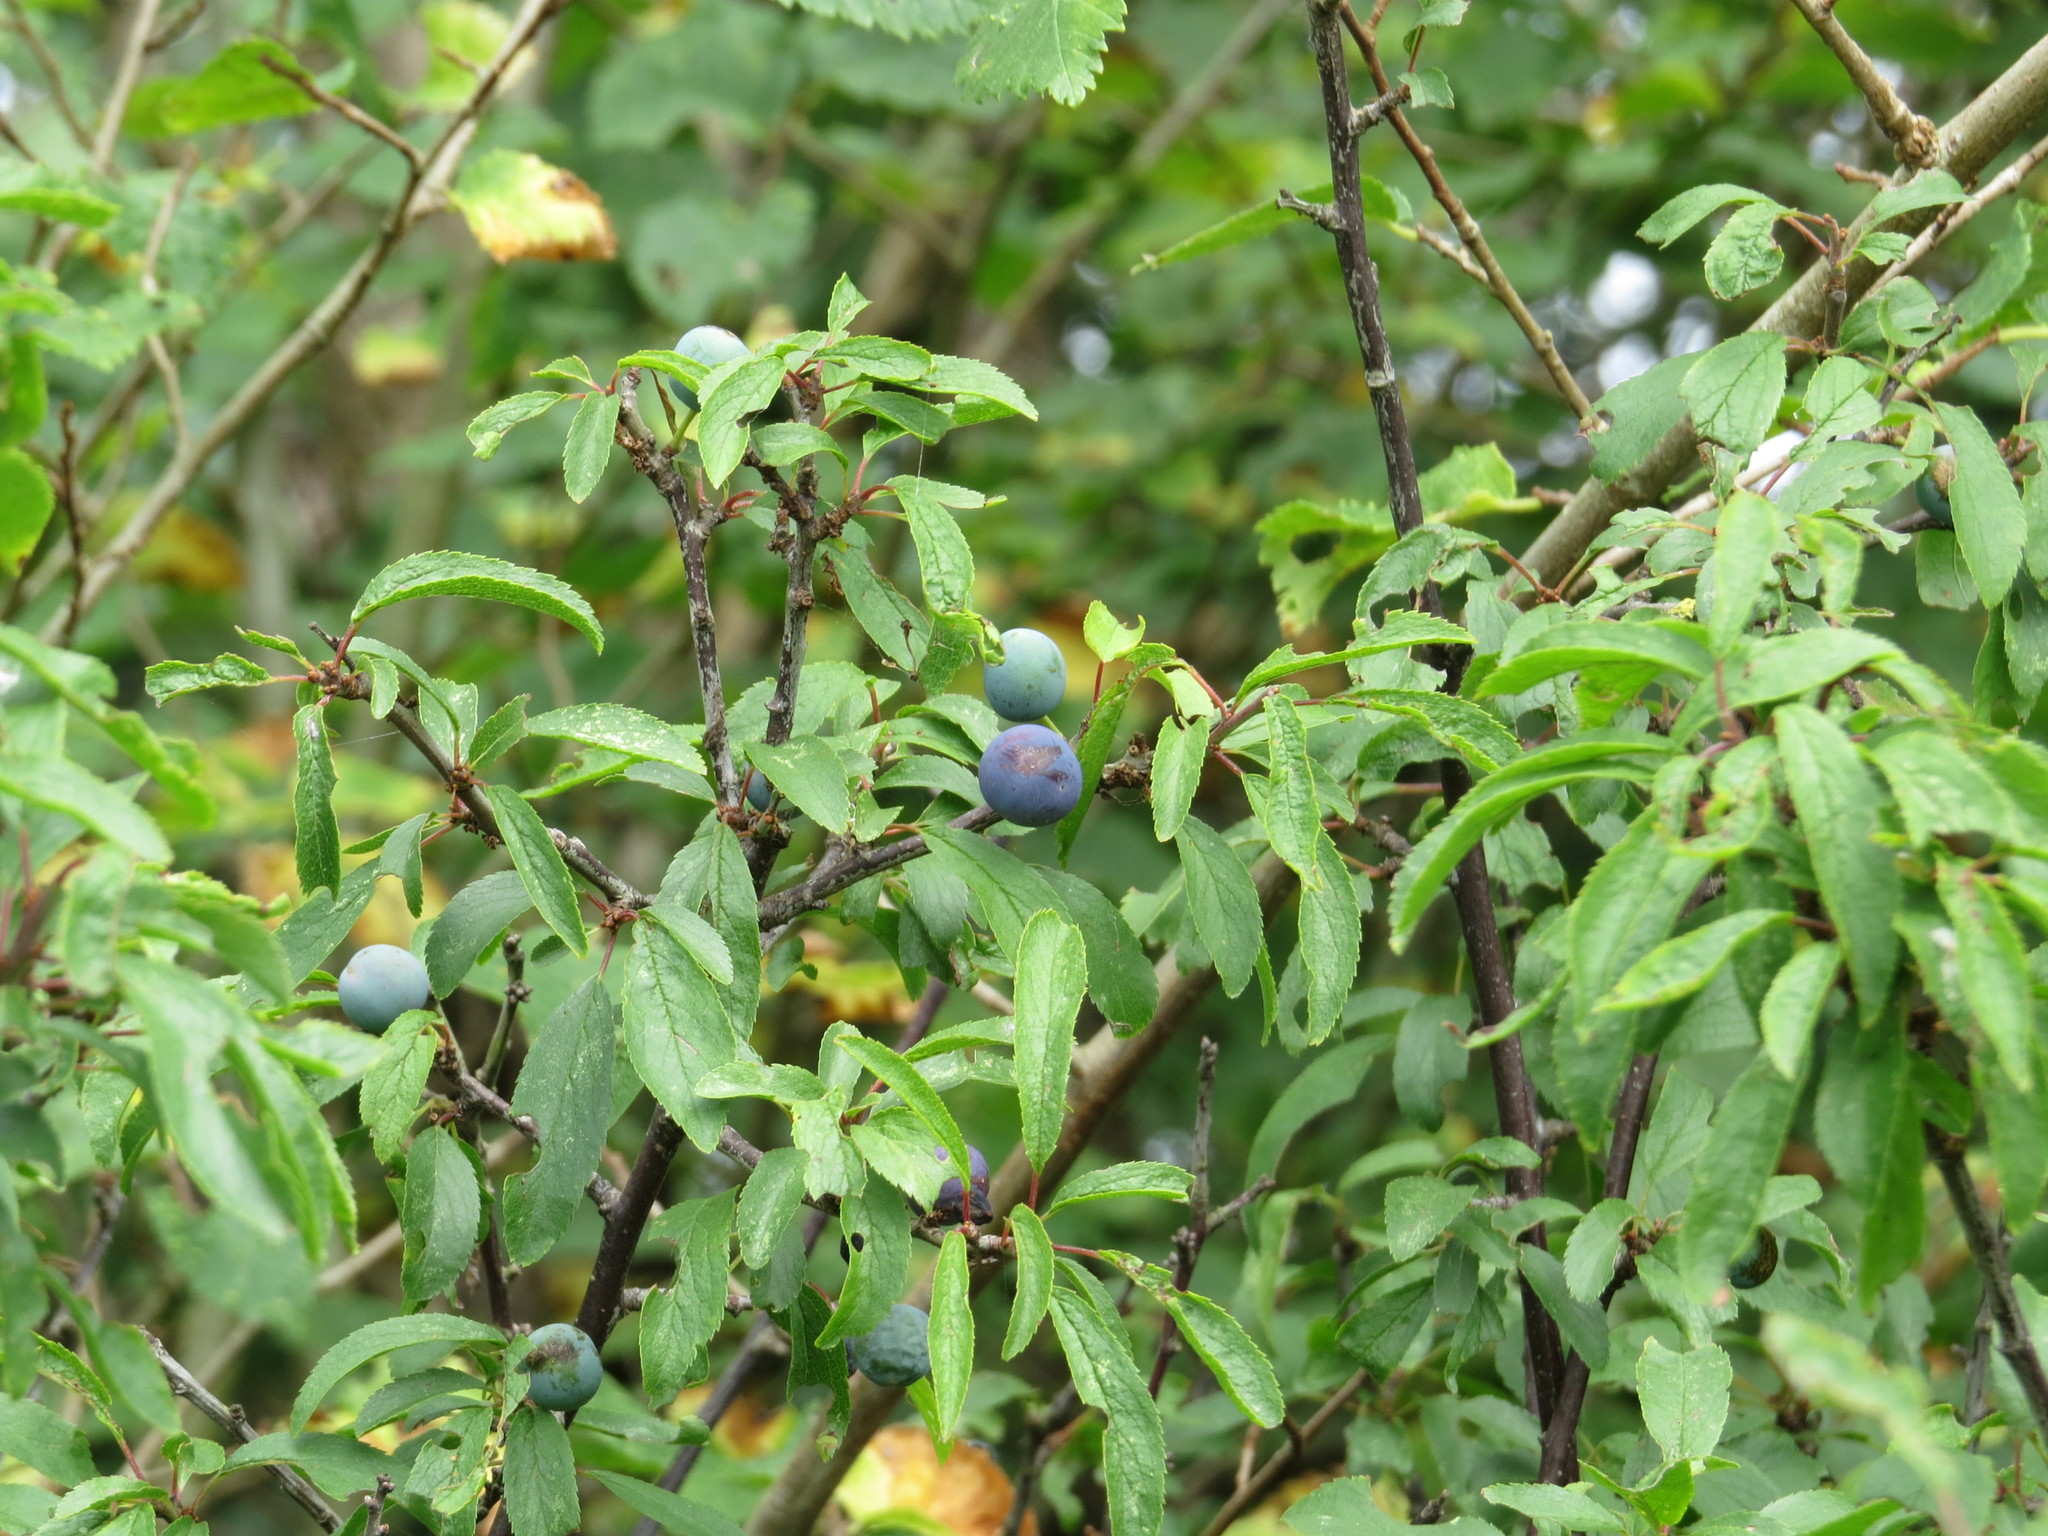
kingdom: Plantae
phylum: Tracheophyta
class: Magnoliopsida
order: Rosales
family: Rosaceae
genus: Prunus
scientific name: Prunus spinosa
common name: Blackthorn
